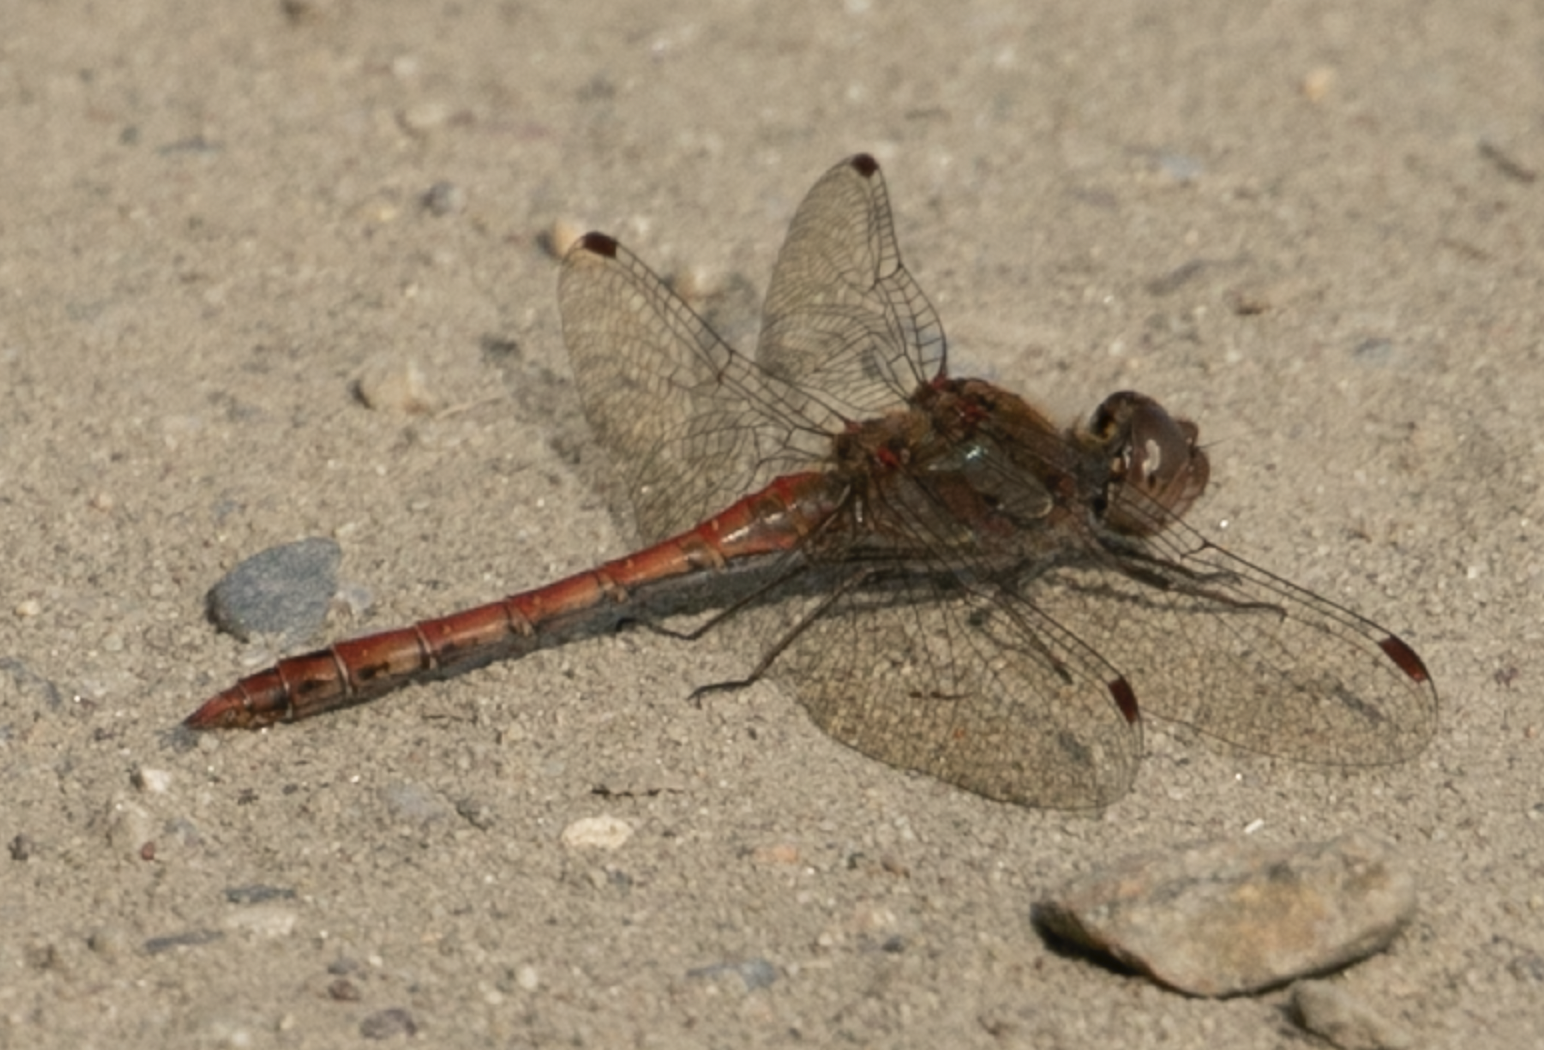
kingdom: Animalia
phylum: Arthropoda
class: Insecta
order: Odonata
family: Libellulidae
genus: Sympetrum
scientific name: Sympetrum striolatum
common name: Common darter
